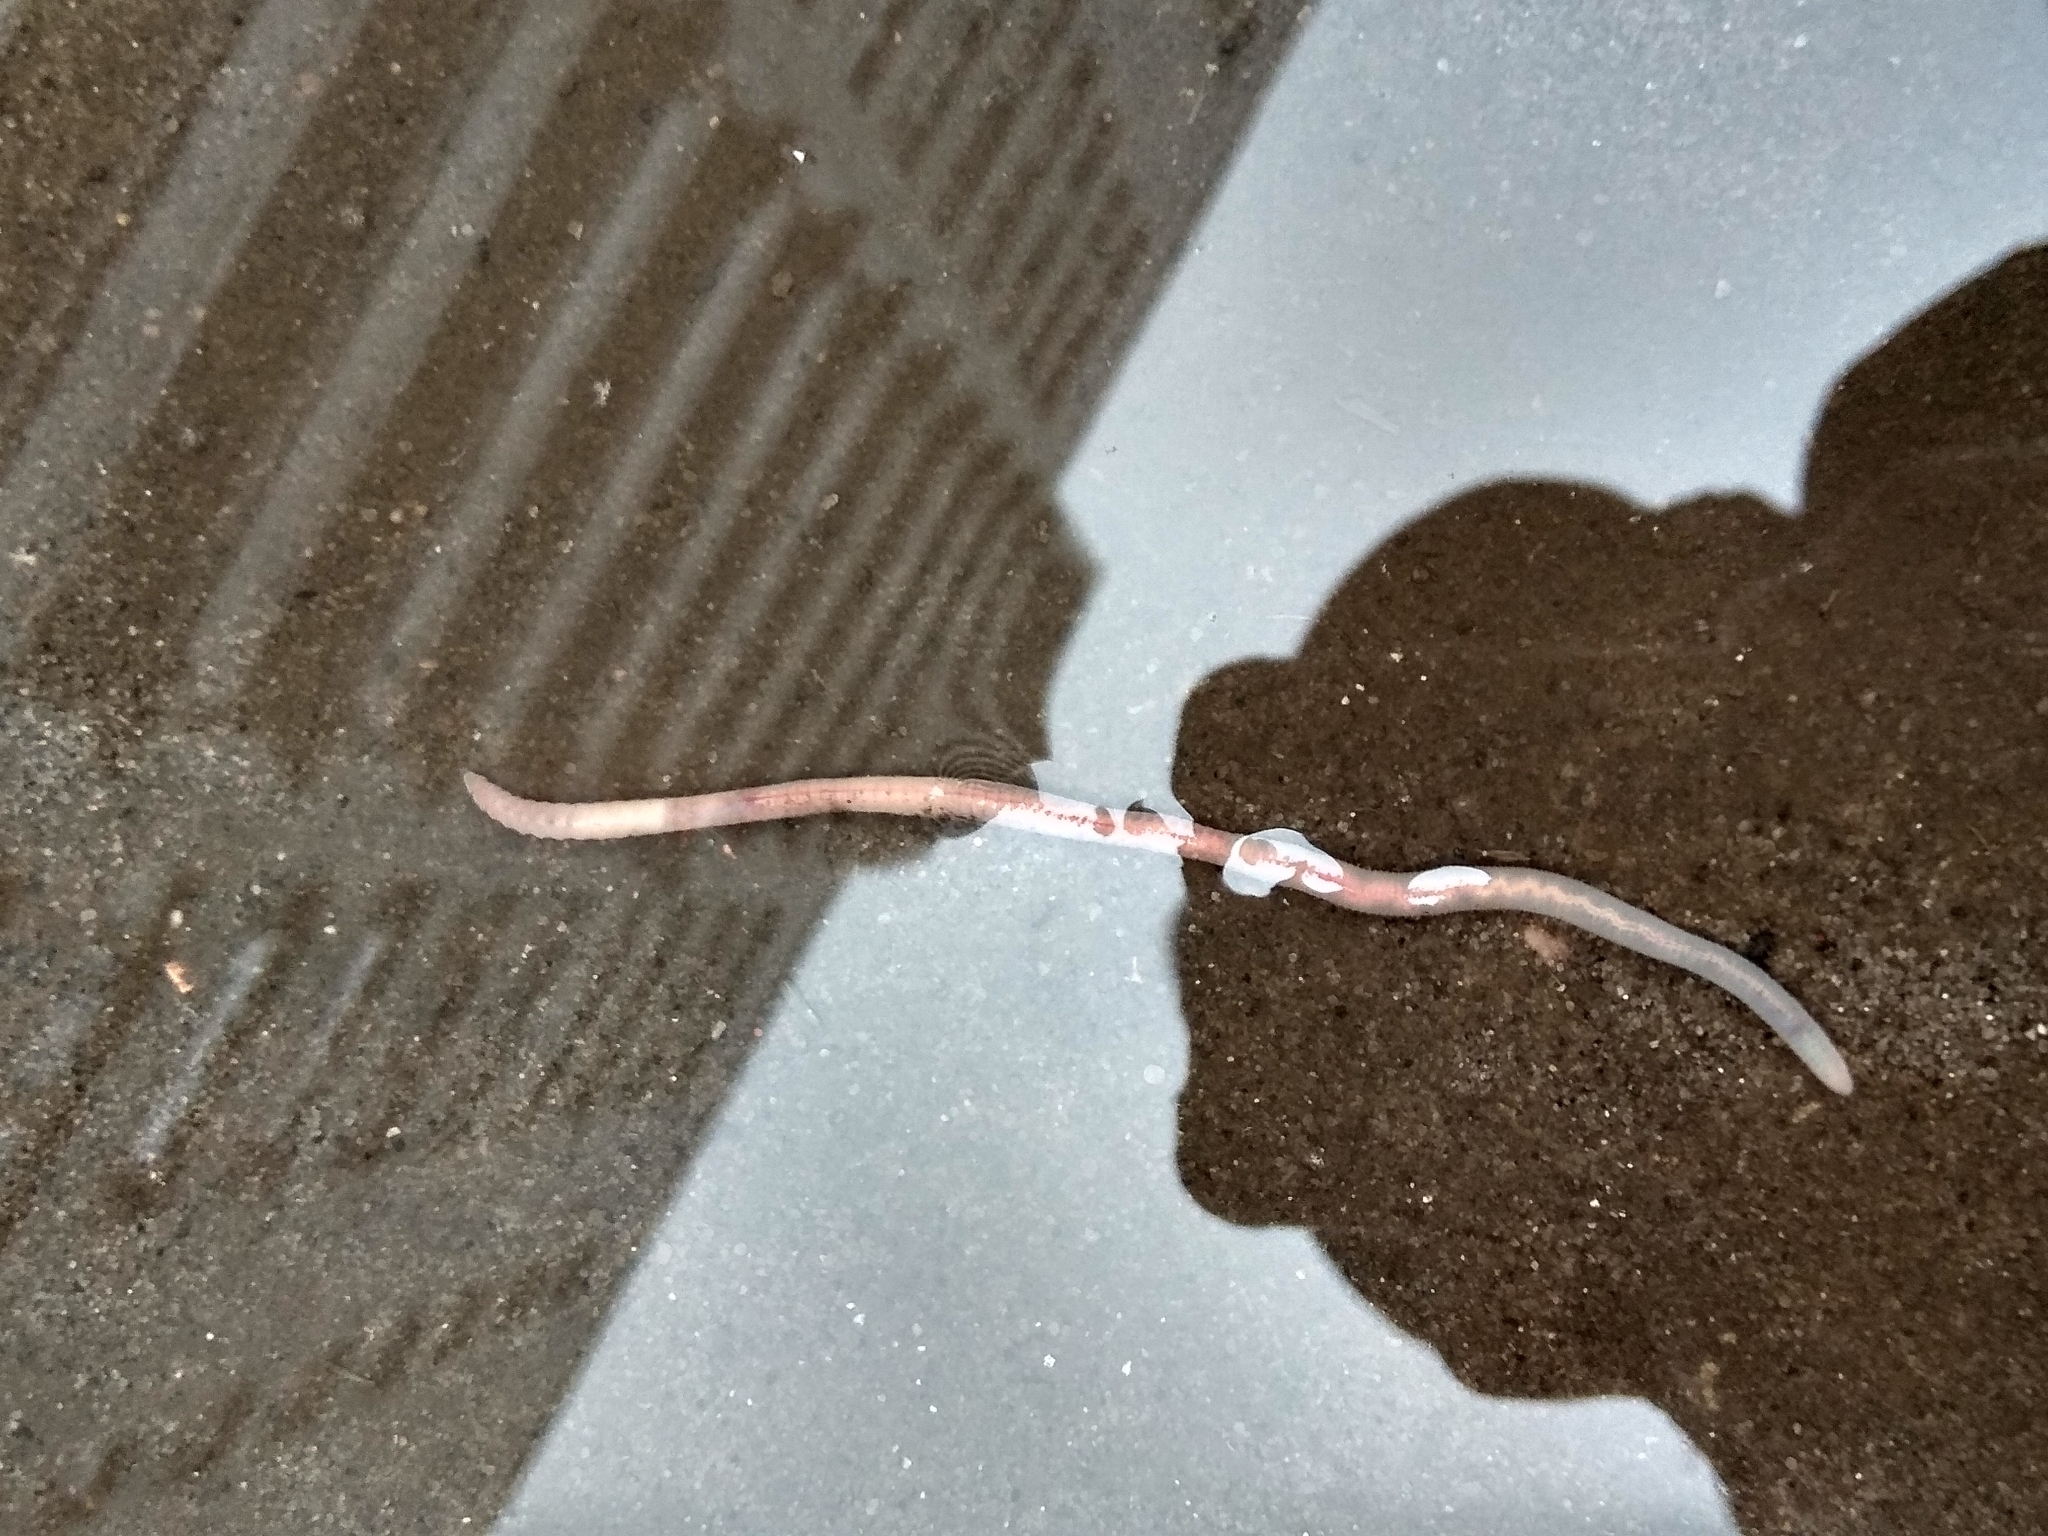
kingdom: Animalia
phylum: Annelida
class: Clitellata
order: Crassiclitellata
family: Lumbricidae
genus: Aporrectodea
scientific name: Aporrectodea caliginosa
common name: Grey worm
